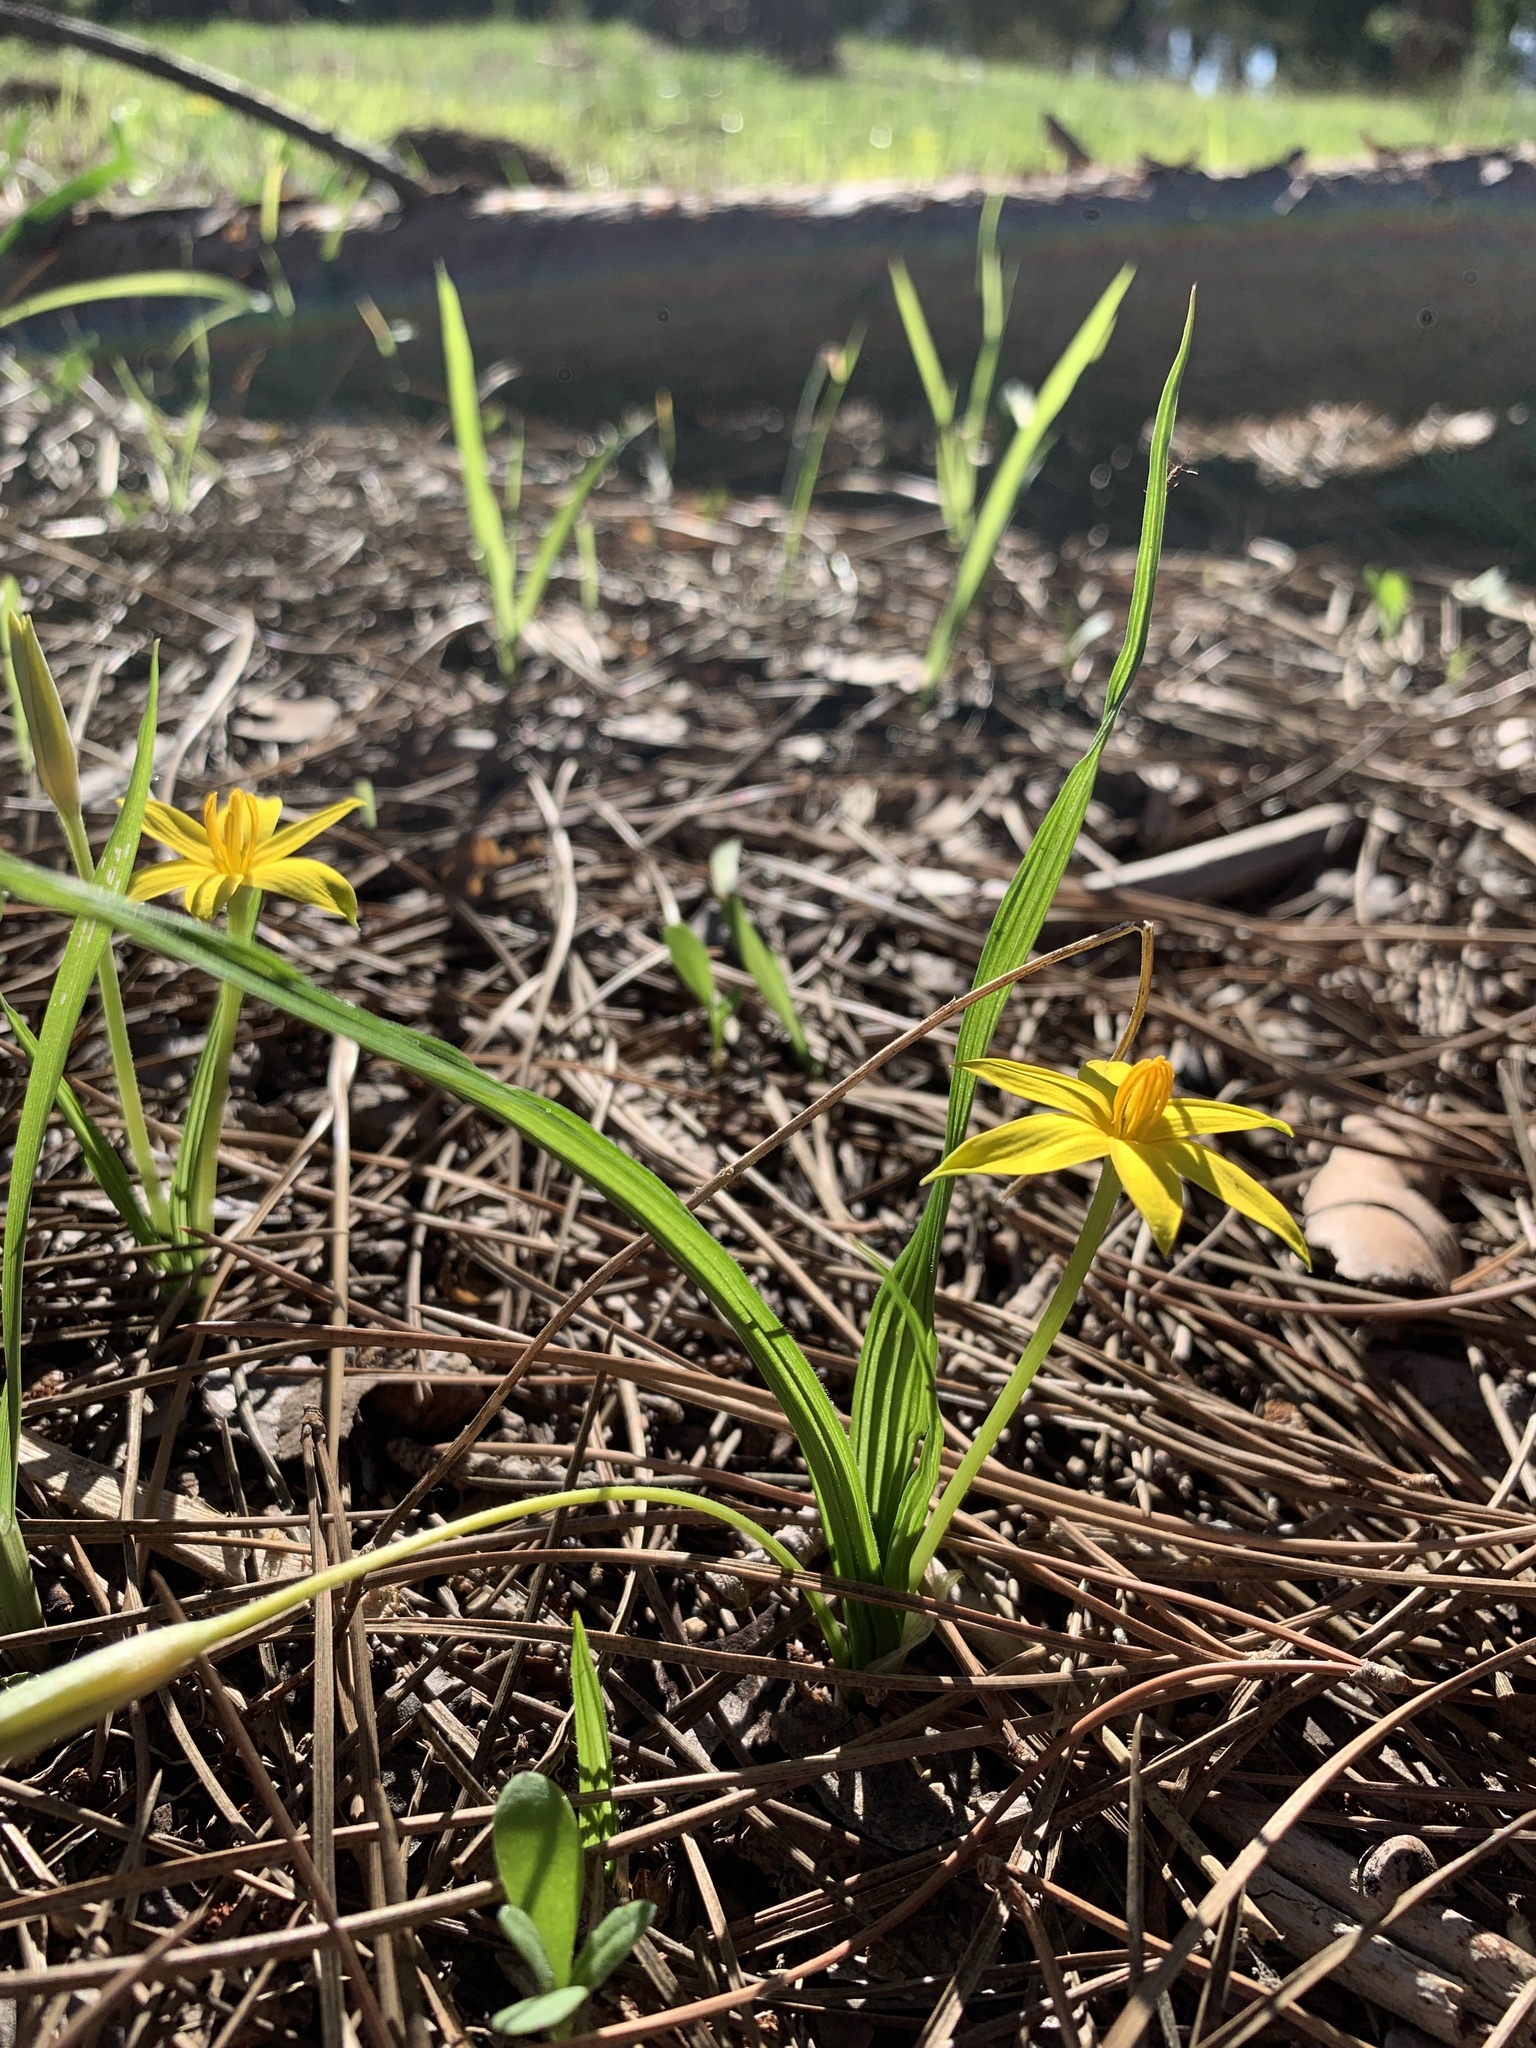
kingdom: Plantae
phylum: Tracheophyta
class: Liliopsida
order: Asparagales
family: Hypoxidaceae
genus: Empodium
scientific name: Empodium plicatum
